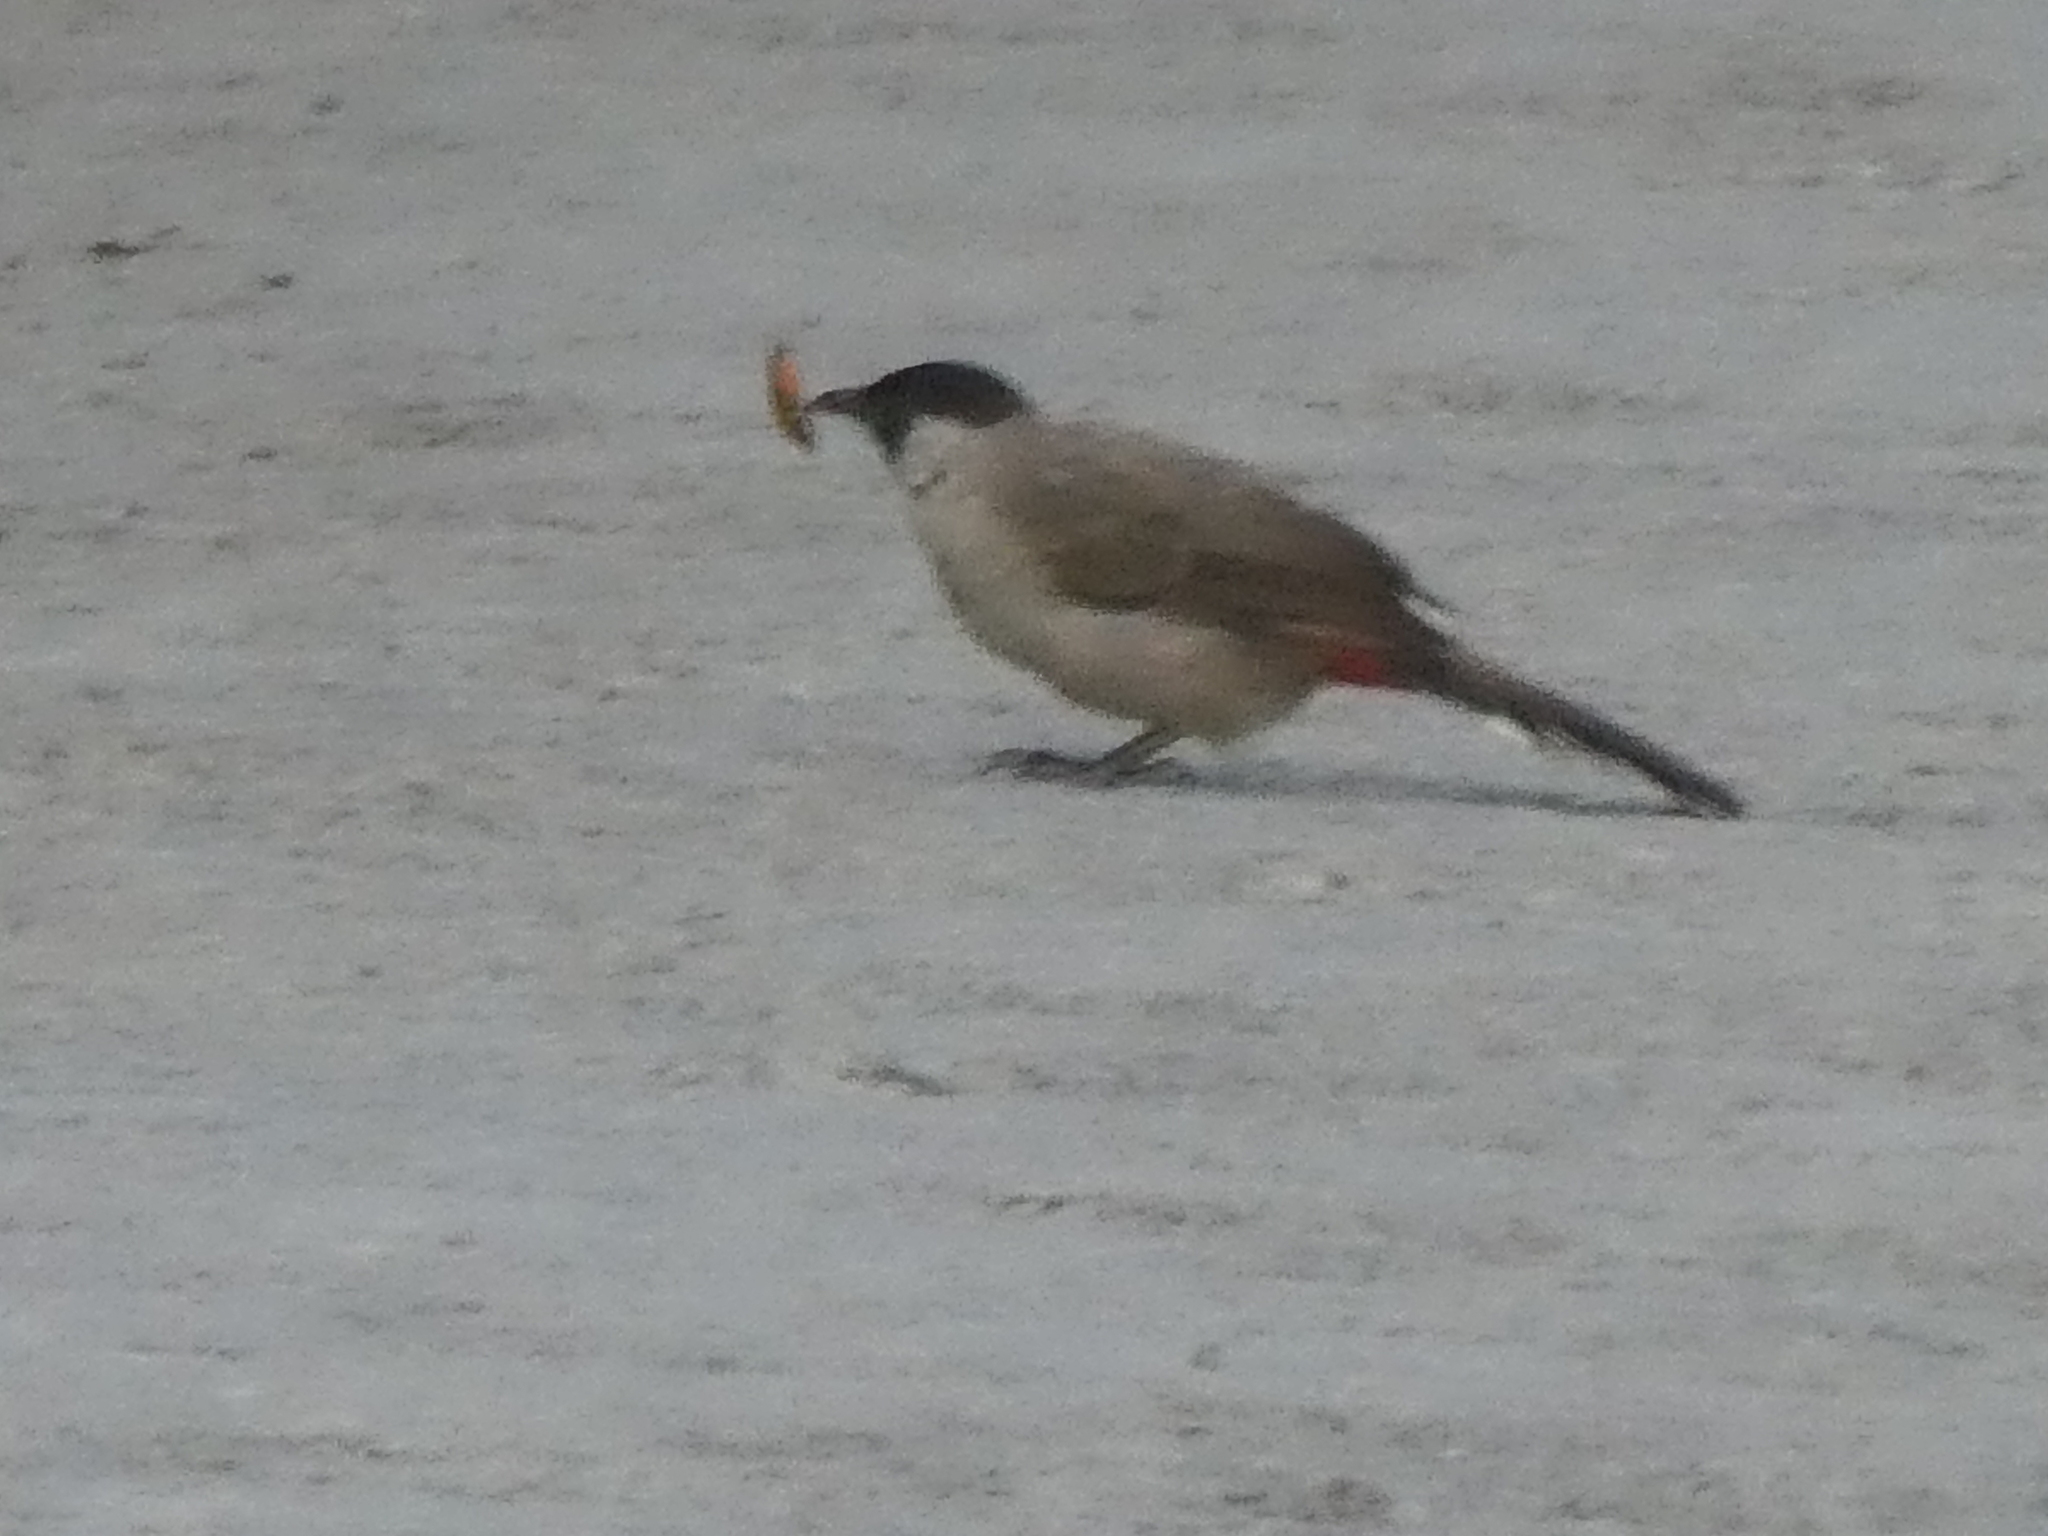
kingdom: Animalia
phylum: Chordata
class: Aves
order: Passeriformes
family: Pycnonotidae
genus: Pycnonotus
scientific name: Pycnonotus aurigaster
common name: Sooty-headed bulbul
